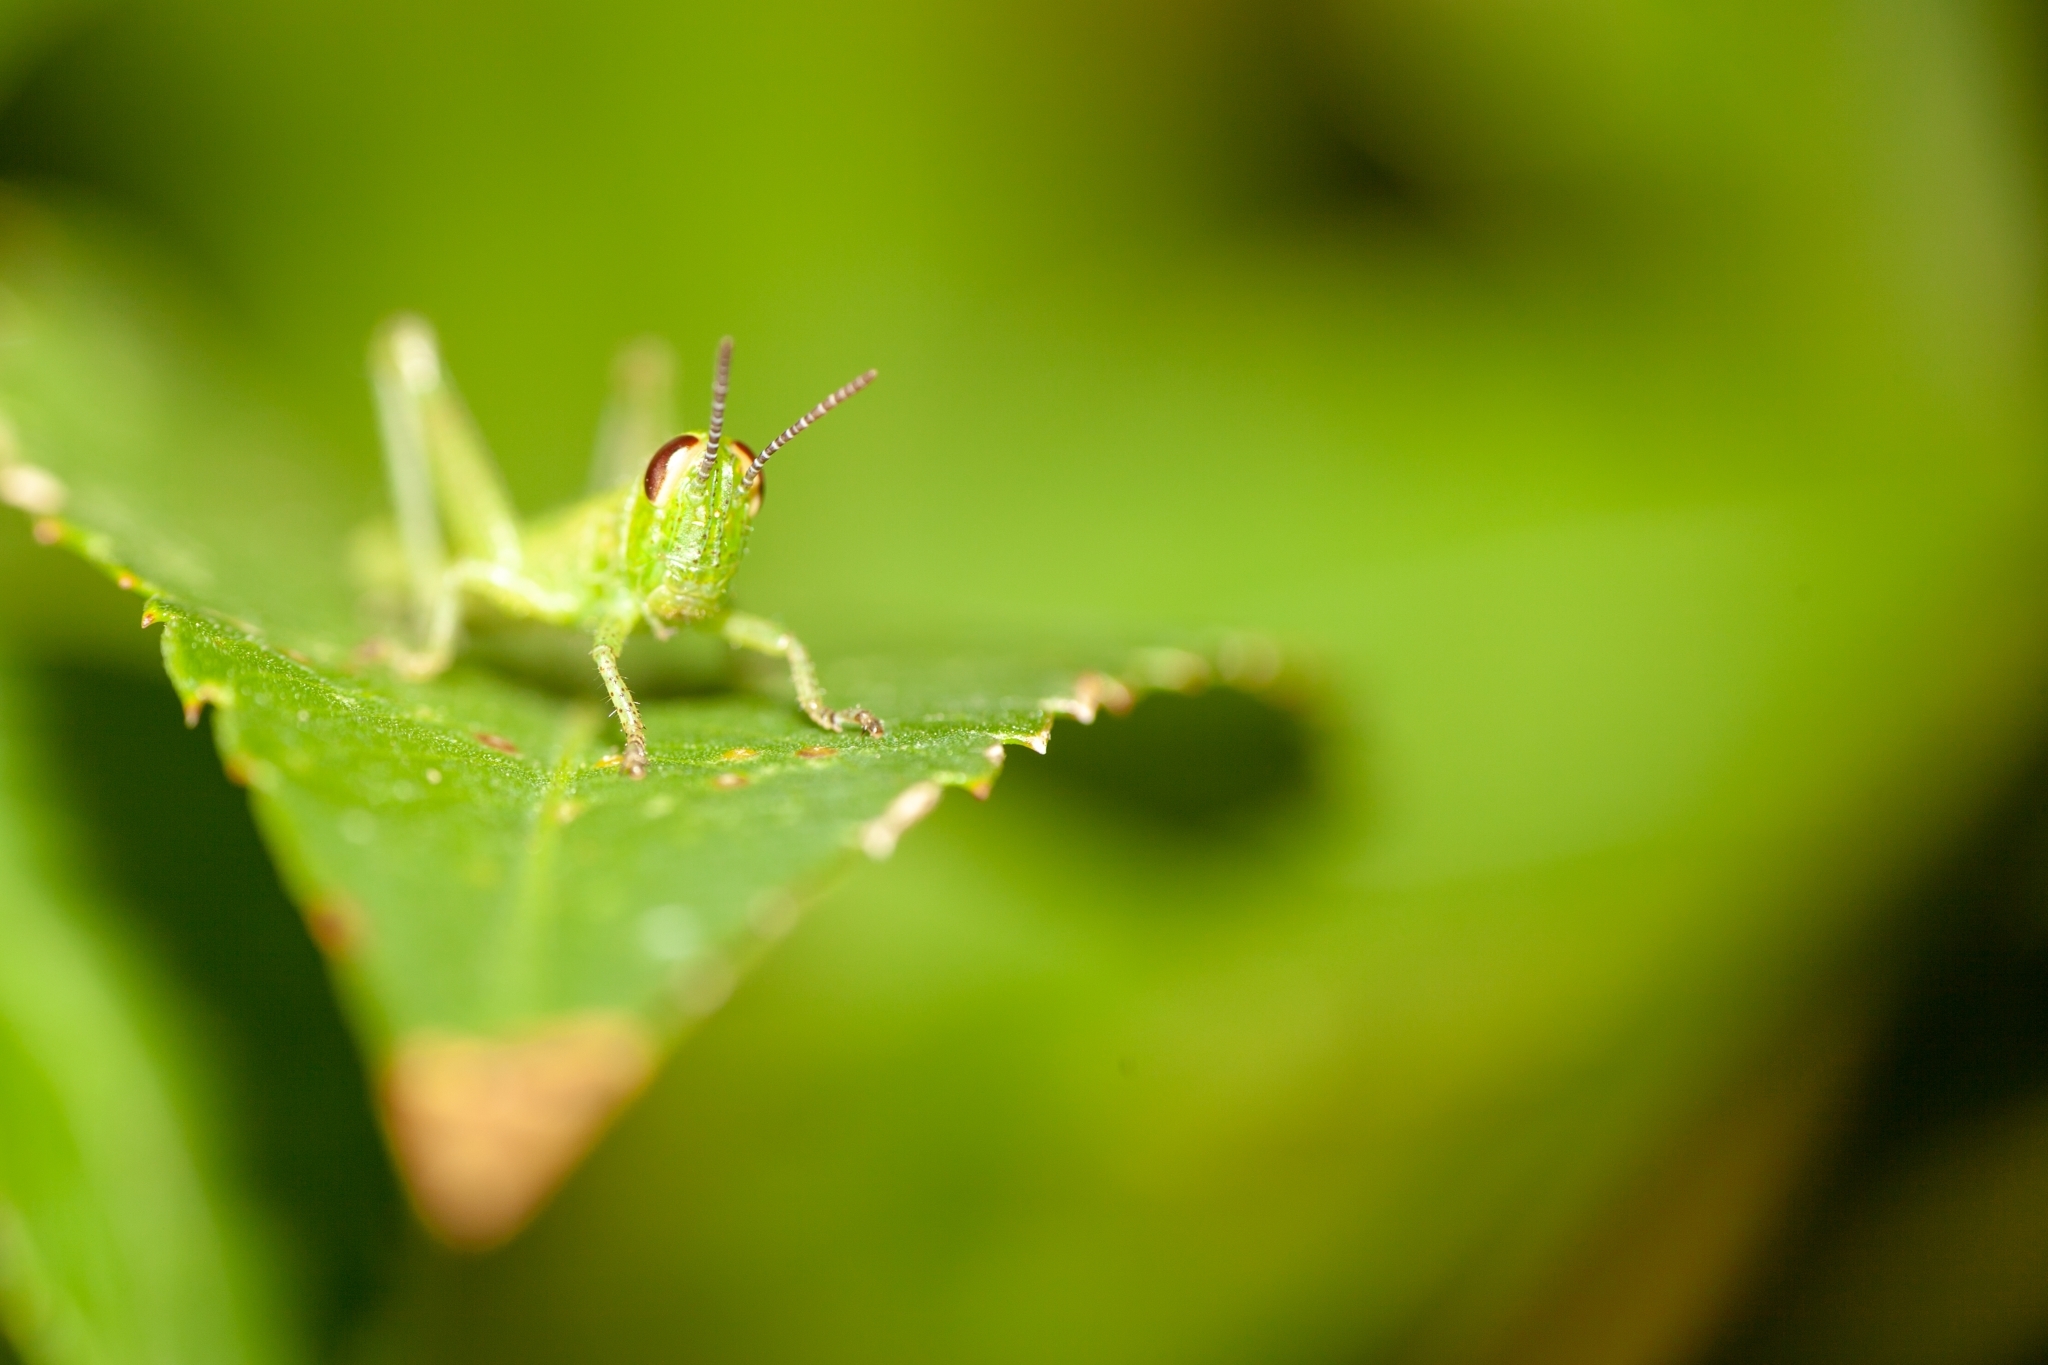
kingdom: Animalia
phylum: Arthropoda
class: Insecta
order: Orthoptera
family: Acrididae
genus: Schistocerca
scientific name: Schistocerca americana
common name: American bird locust
